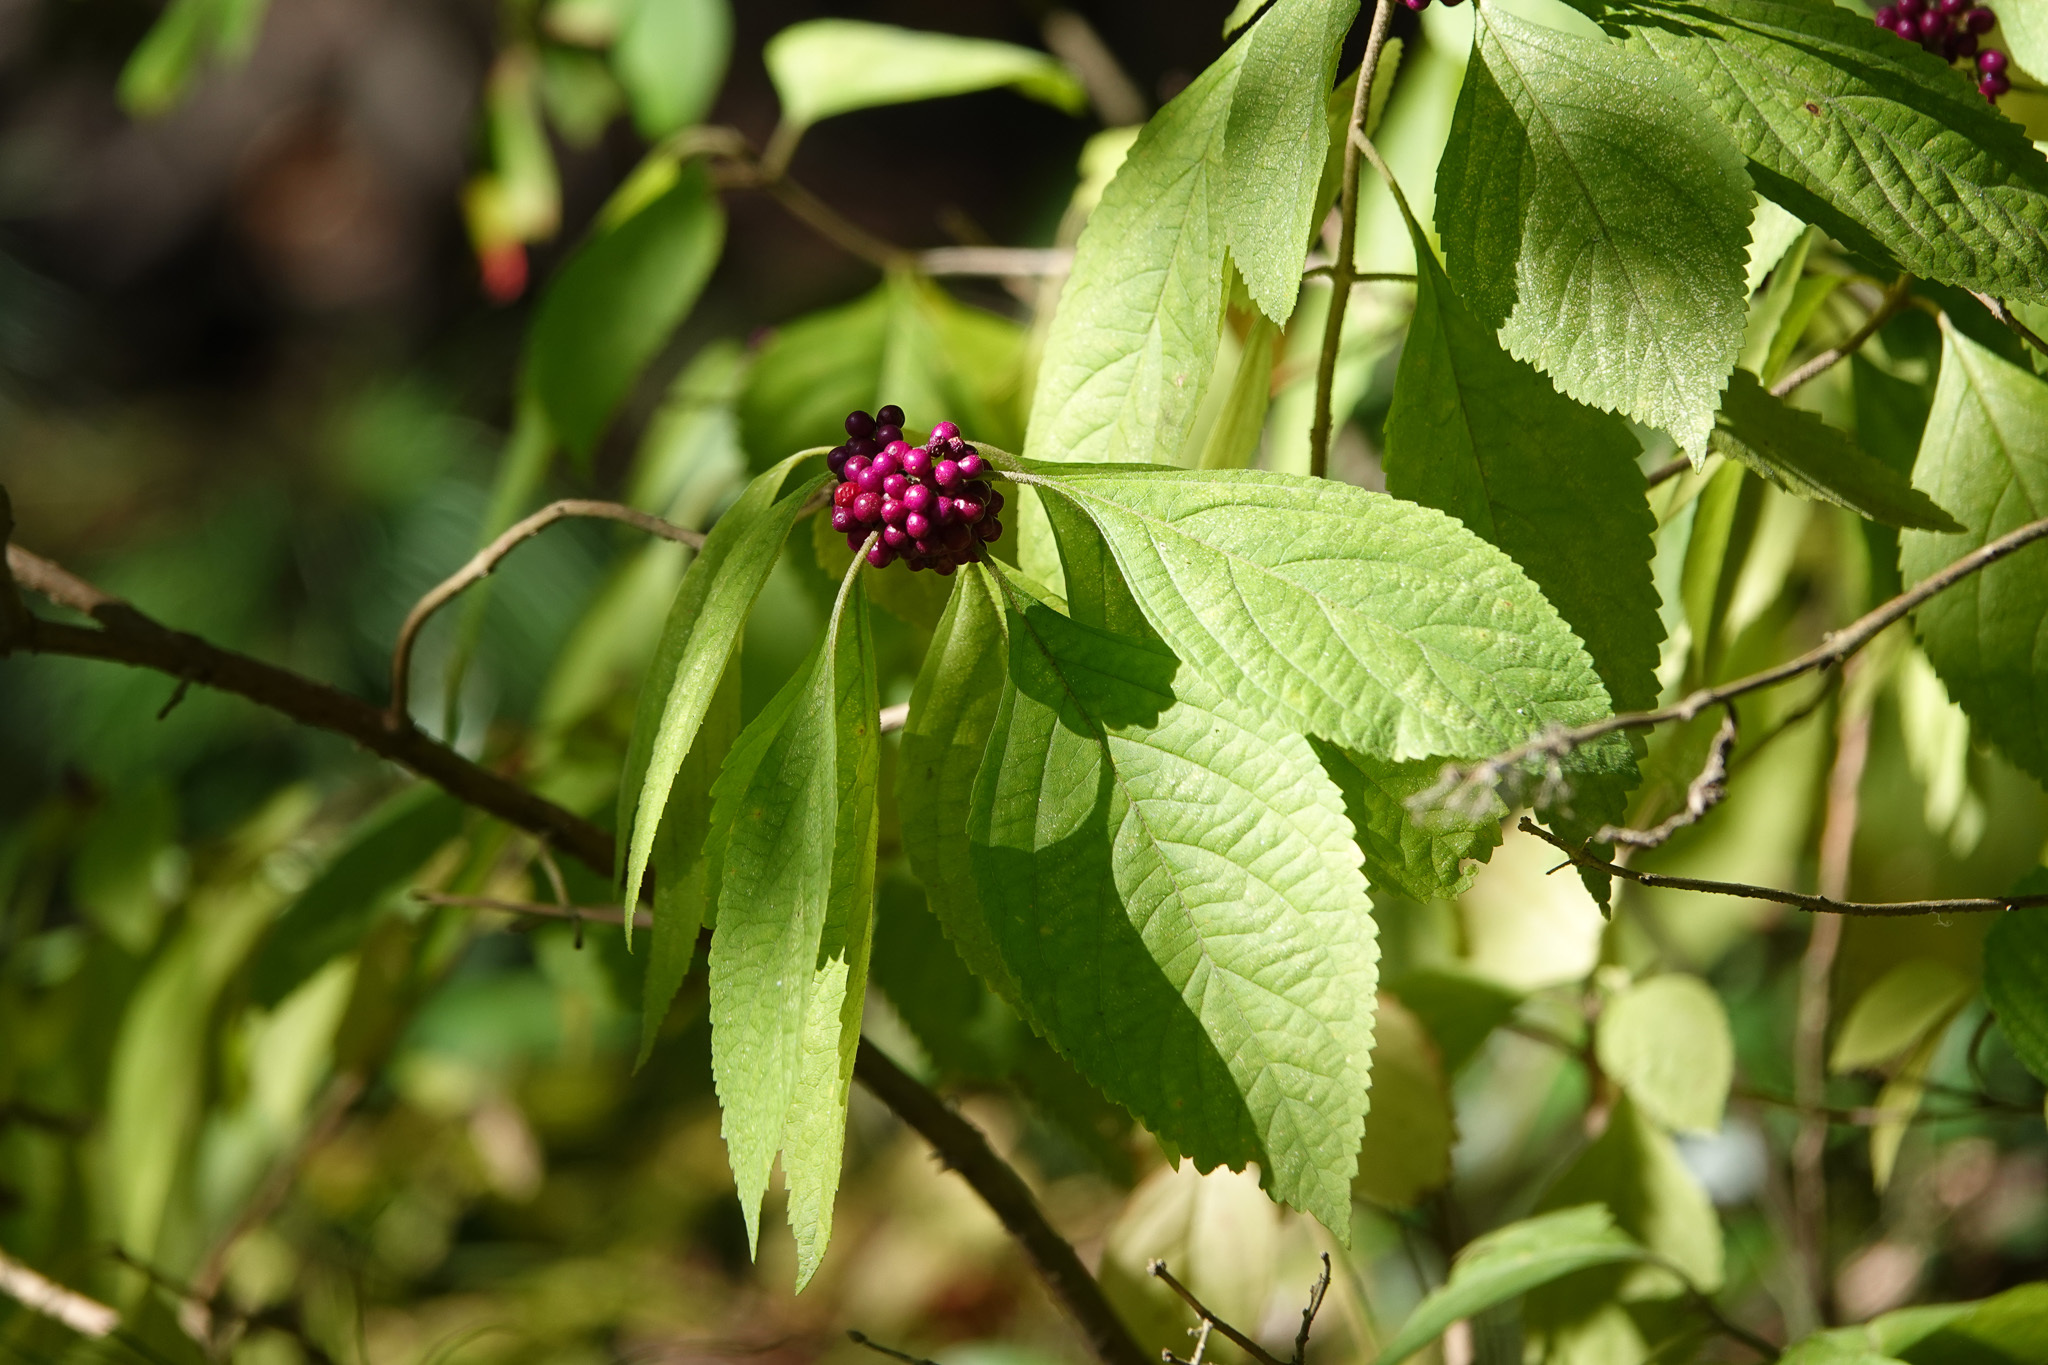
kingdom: Plantae
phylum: Tracheophyta
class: Magnoliopsida
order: Lamiales
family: Lamiaceae
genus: Callicarpa
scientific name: Callicarpa americana
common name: American beautyberry
